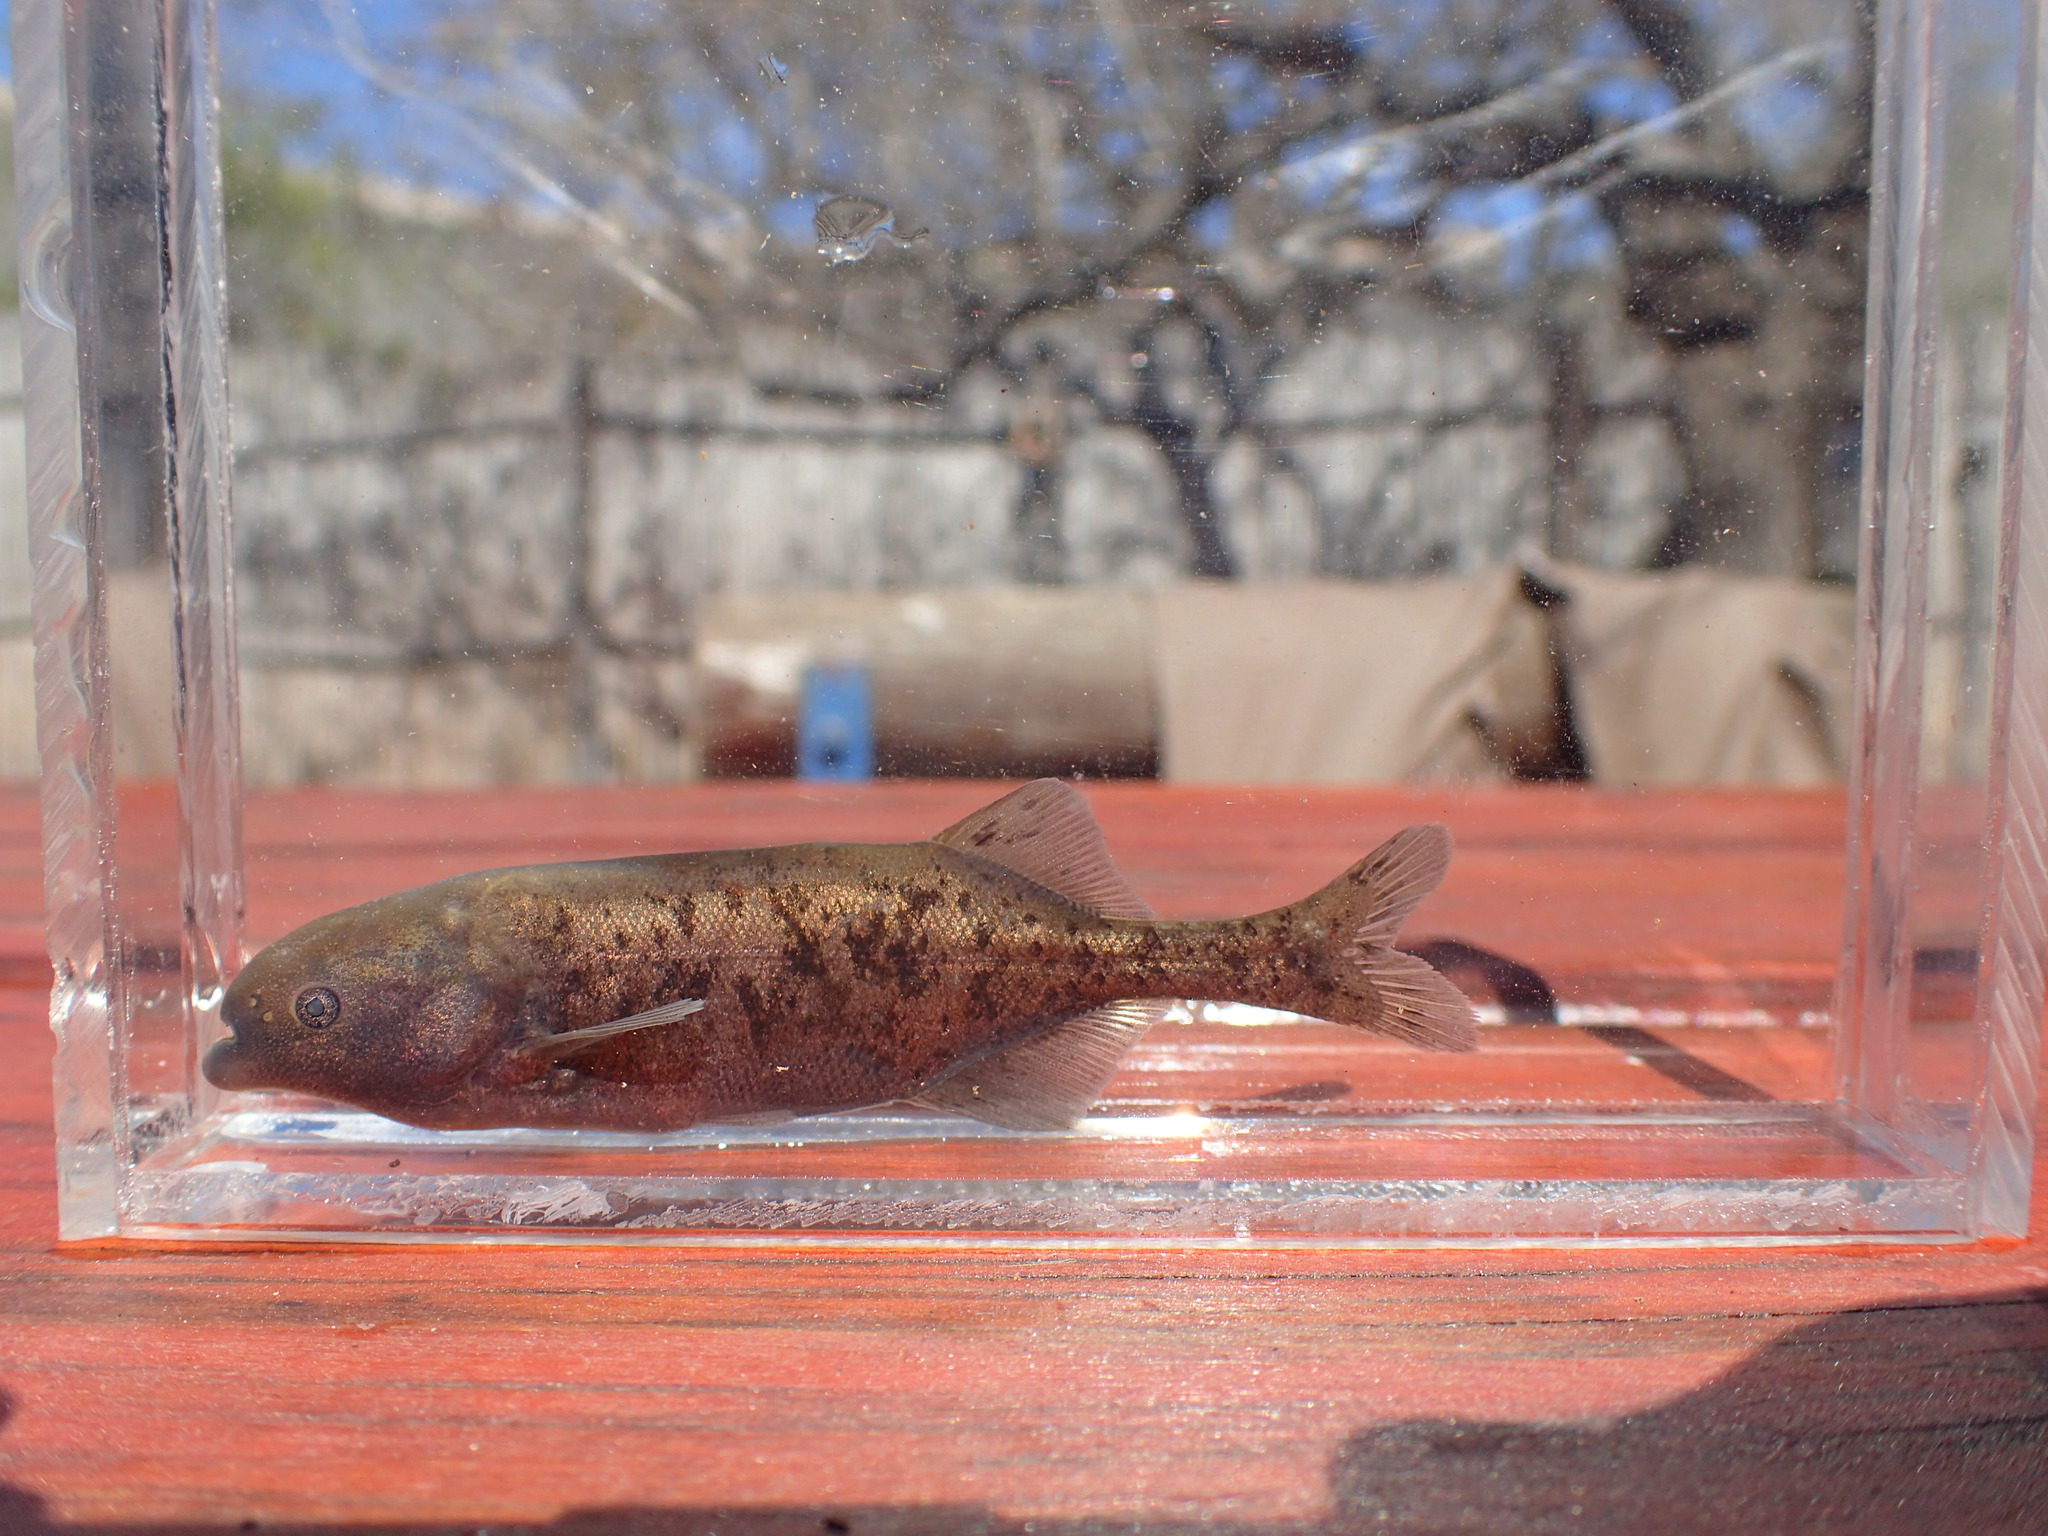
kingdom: Animalia
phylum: Chordata
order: Osteoglossiformes
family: Mormyridae
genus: Marcusenius
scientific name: Marcusenius pongolensis
